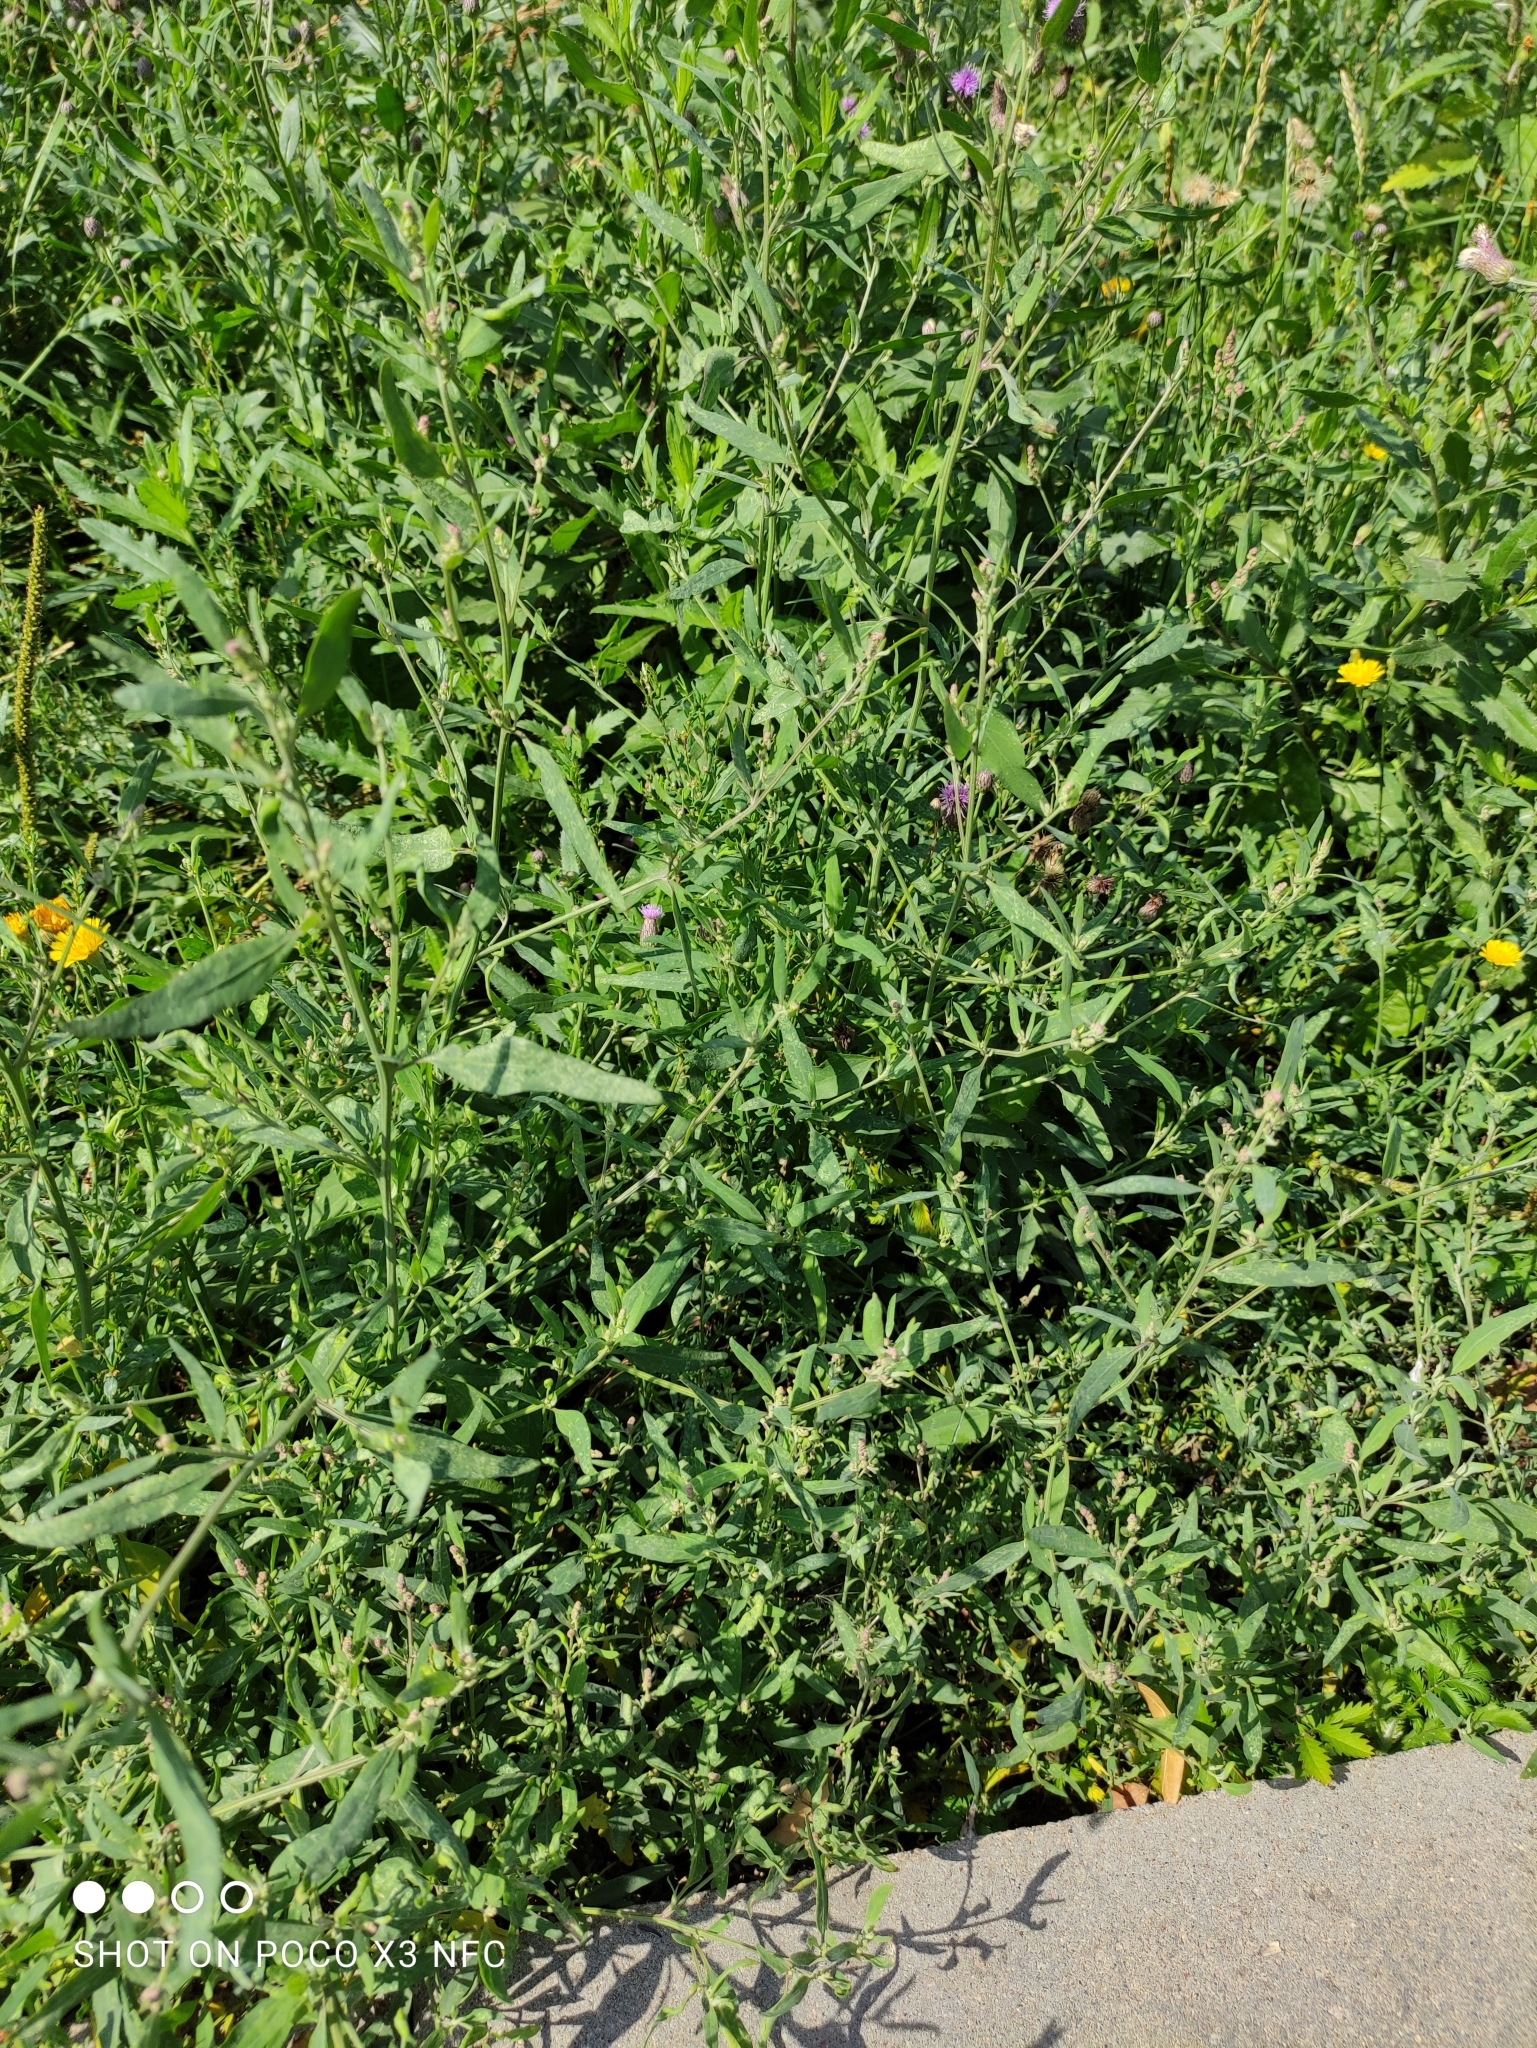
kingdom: Plantae
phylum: Tracheophyta
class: Magnoliopsida
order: Caryophyllales
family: Amaranthaceae
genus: Atriplex
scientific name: Atriplex patula
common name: Common orache
